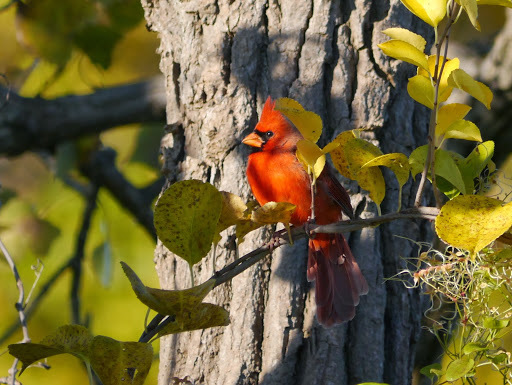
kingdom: Animalia
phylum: Chordata
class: Aves
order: Passeriformes
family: Cardinalidae
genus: Cardinalis
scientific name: Cardinalis cardinalis
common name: Northern cardinal
